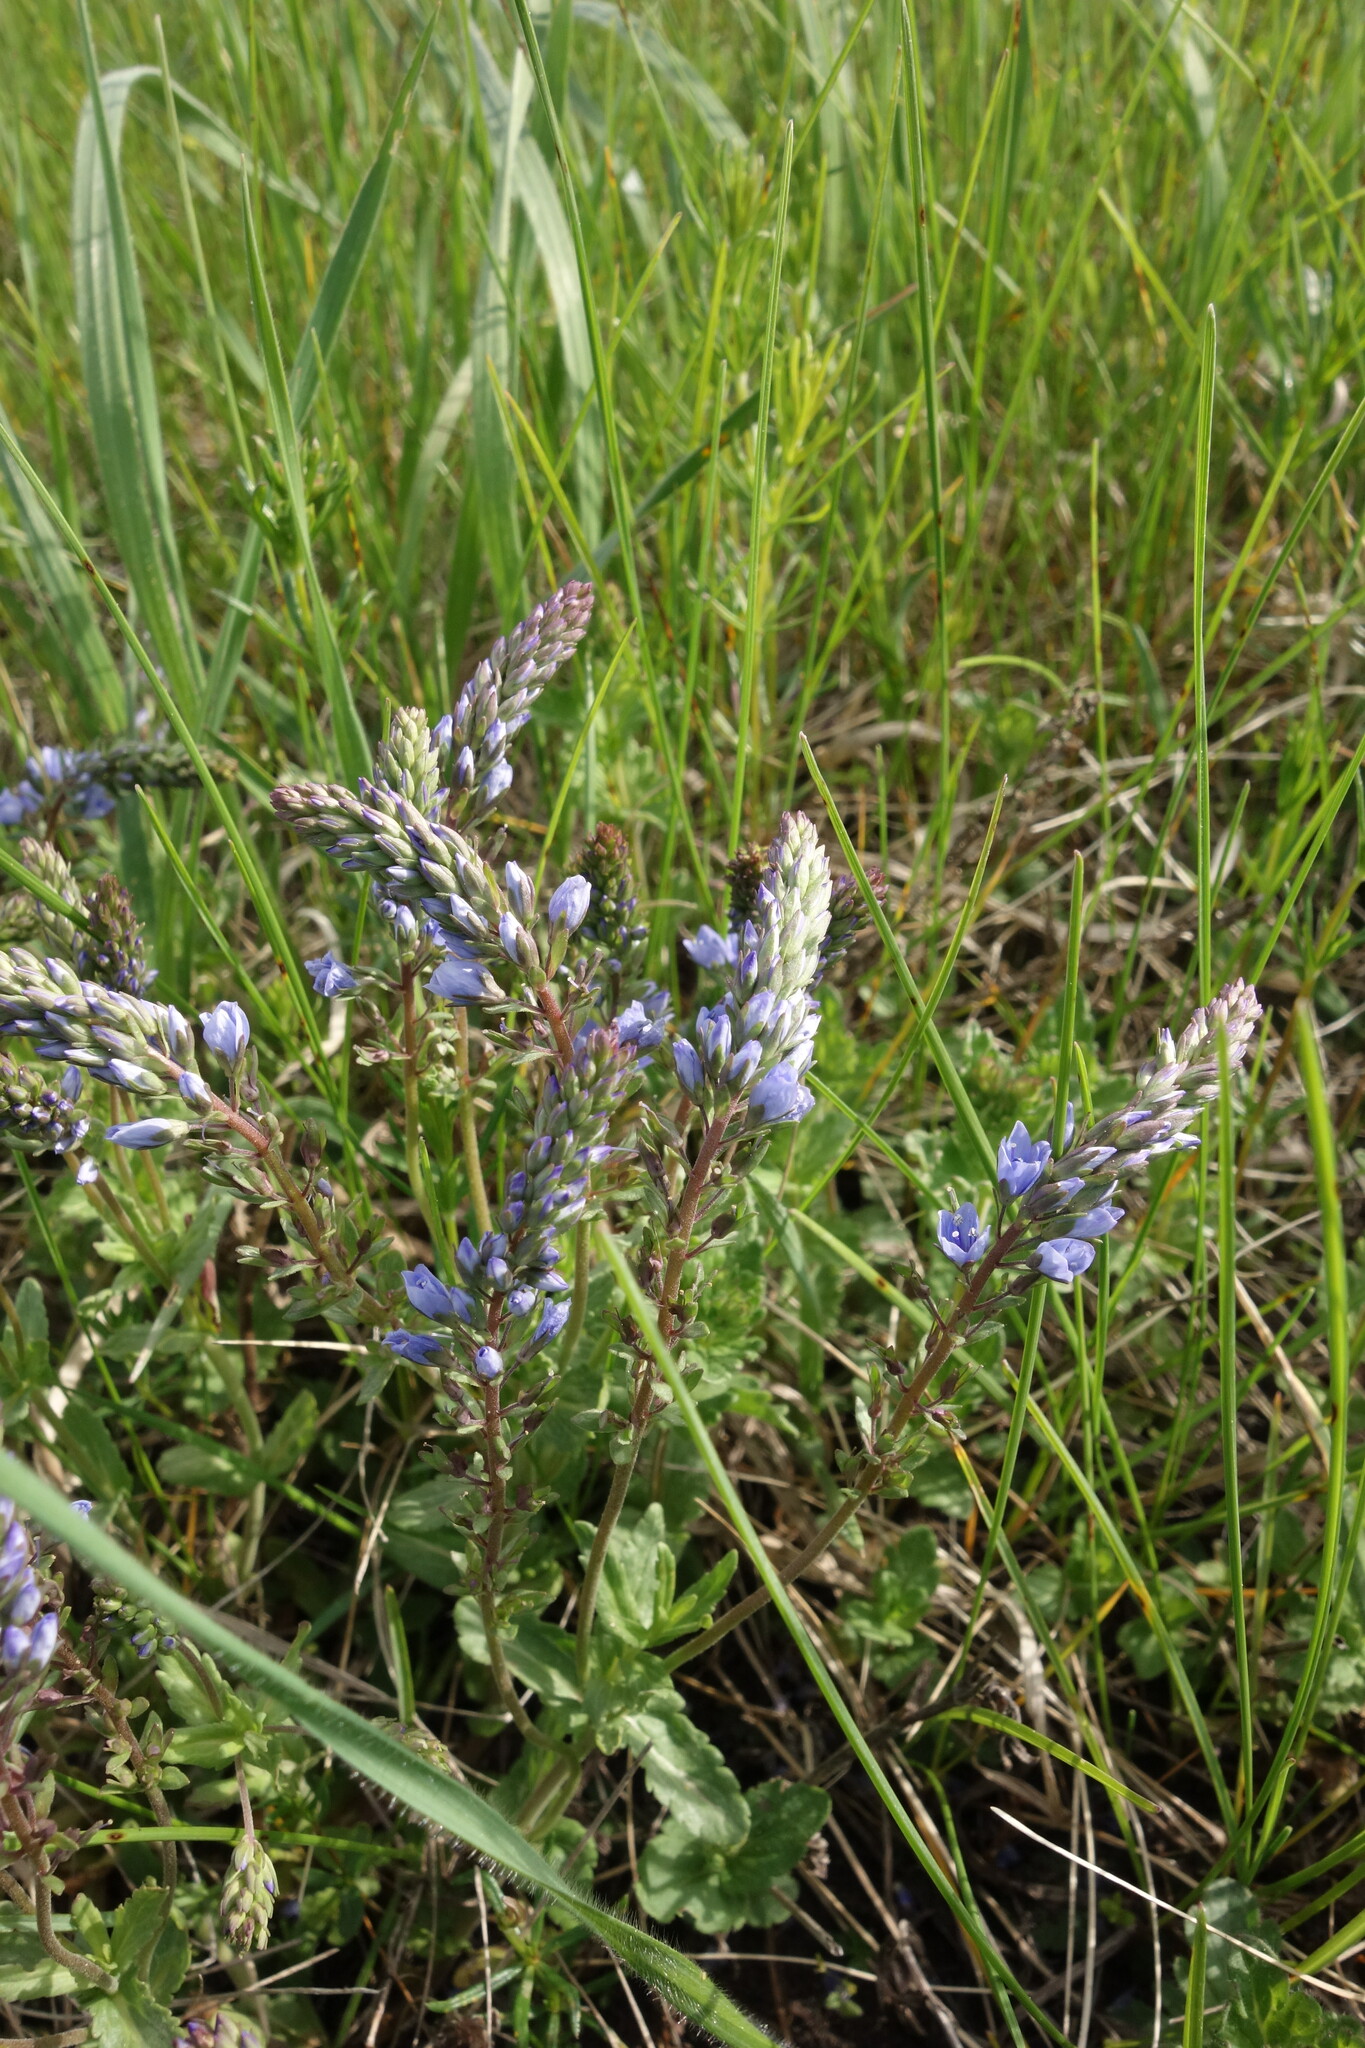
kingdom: Plantae
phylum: Tracheophyta
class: Magnoliopsida
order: Lamiales
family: Plantaginaceae
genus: Veronica
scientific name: Veronica prostrata
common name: Prostrate speedwell
